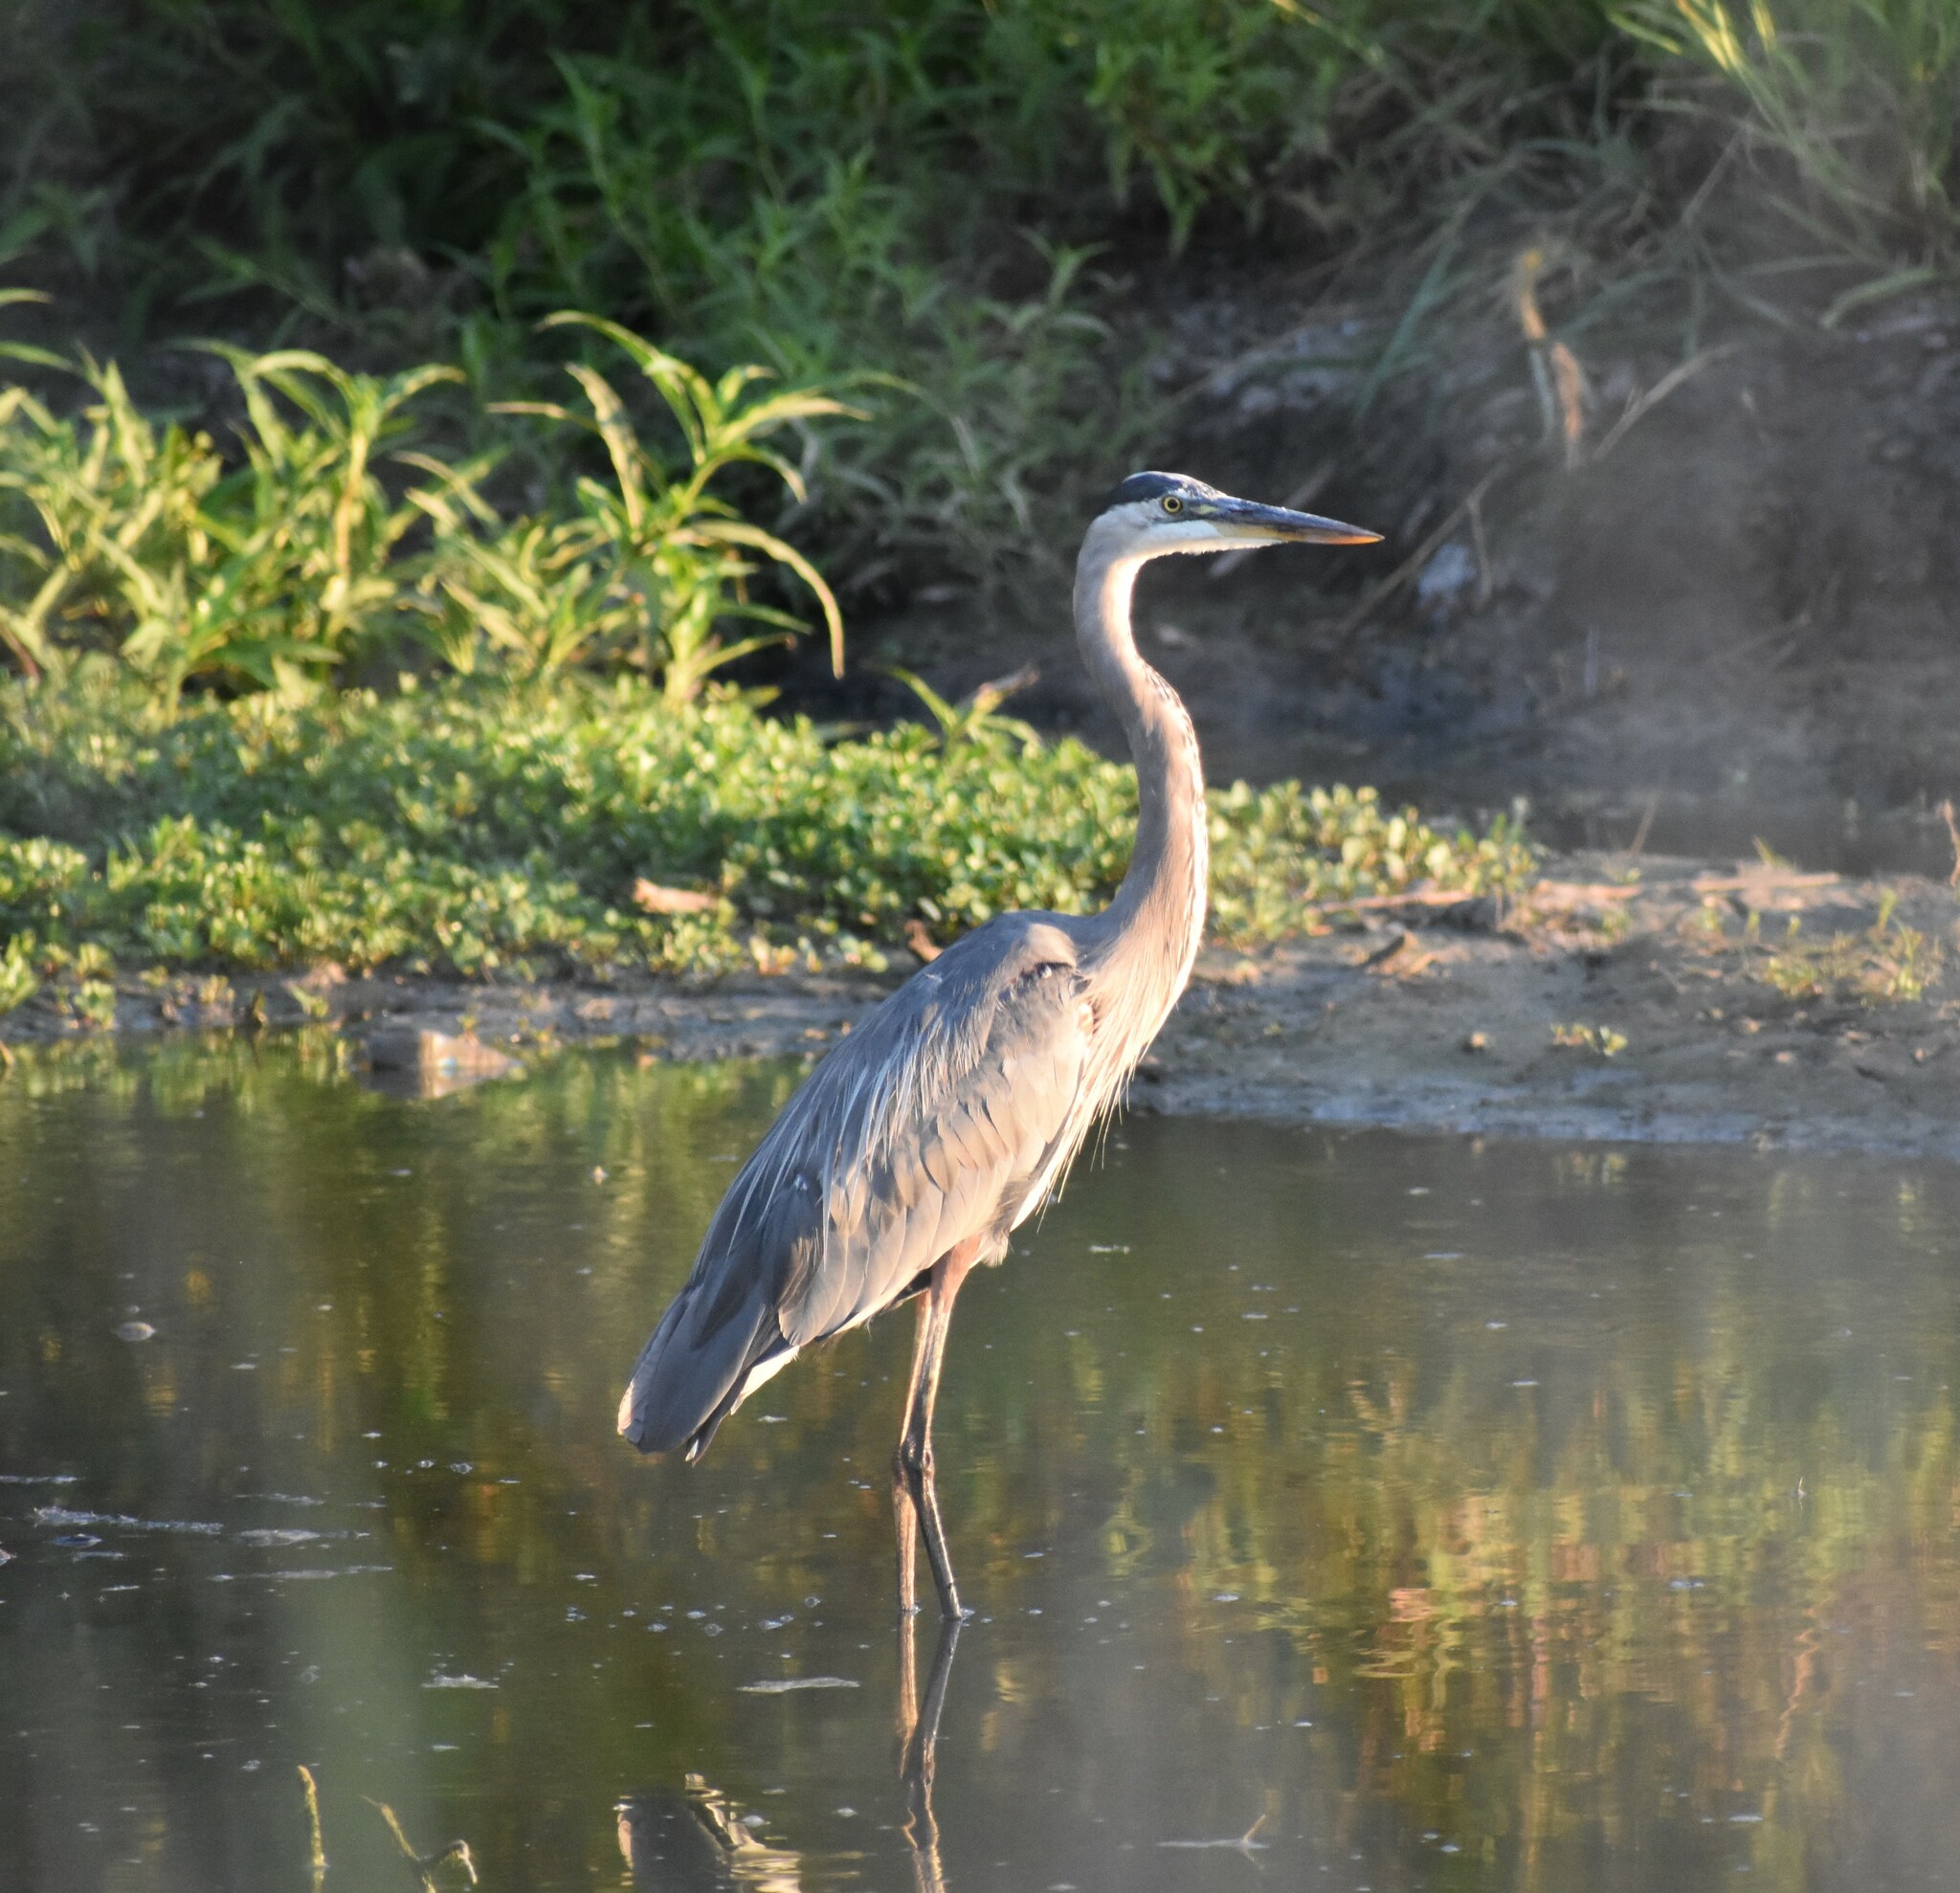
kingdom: Animalia
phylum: Chordata
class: Aves
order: Pelecaniformes
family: Ardeidae
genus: Ardea
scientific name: Ardea herodias
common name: Great blue heron
